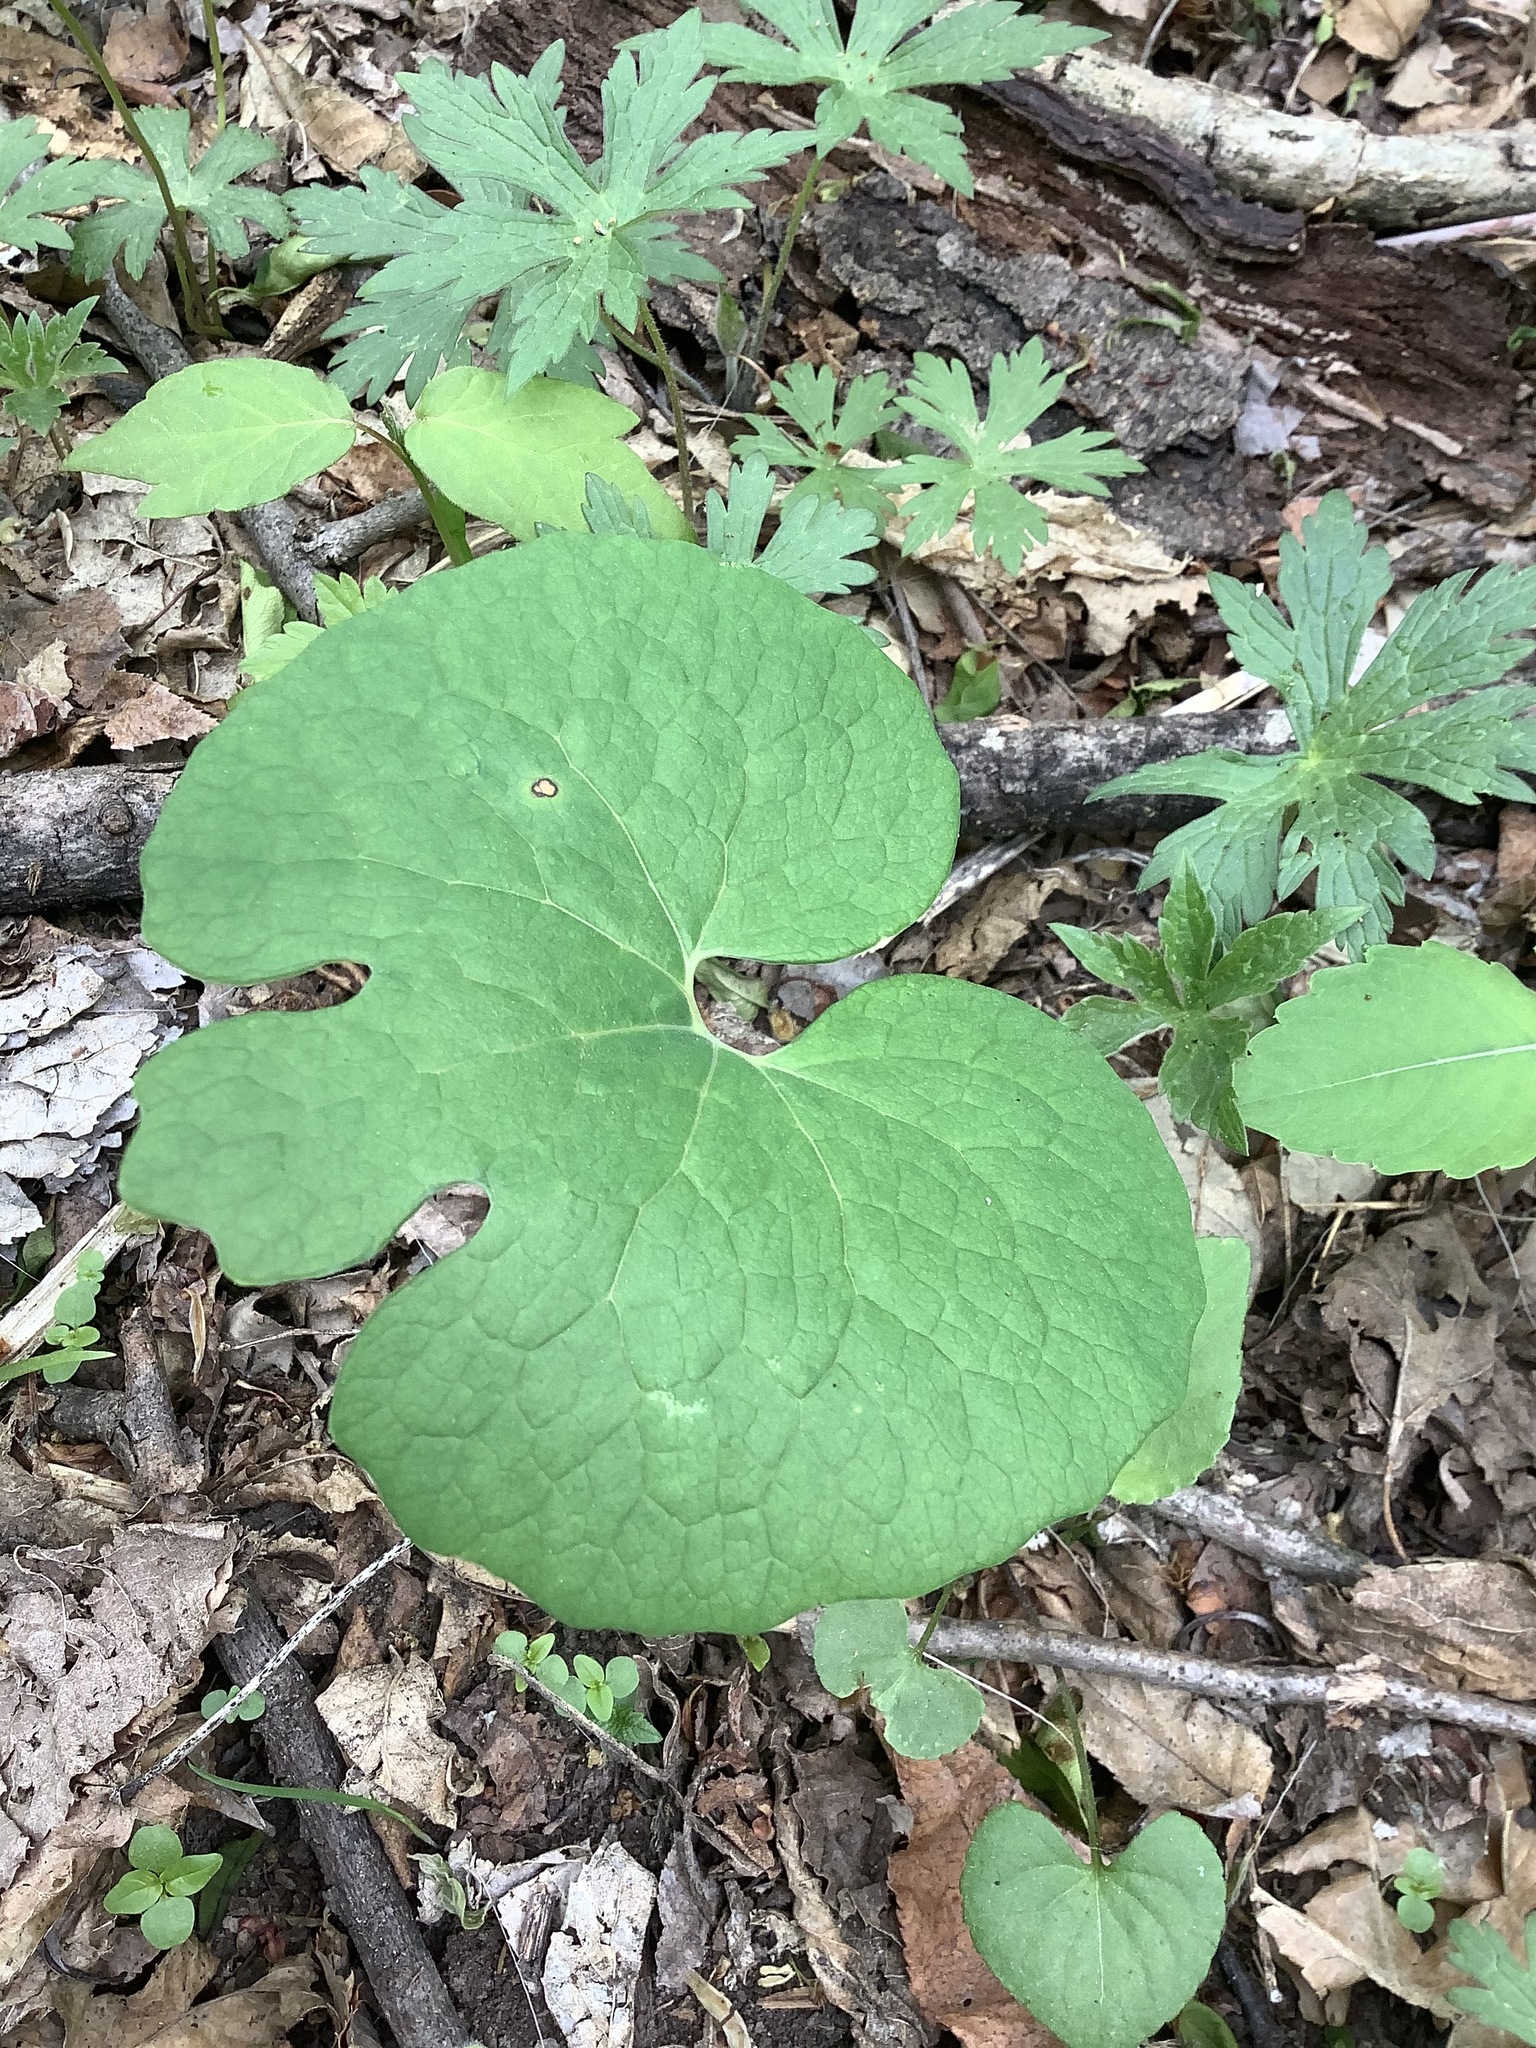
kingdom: Plantae
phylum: Tracheophyta
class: Magnoliopsida
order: Ranunculales
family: Papaveraceae
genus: Sanguinaria
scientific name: Sanguinaria canadensis
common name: Bloodroot
